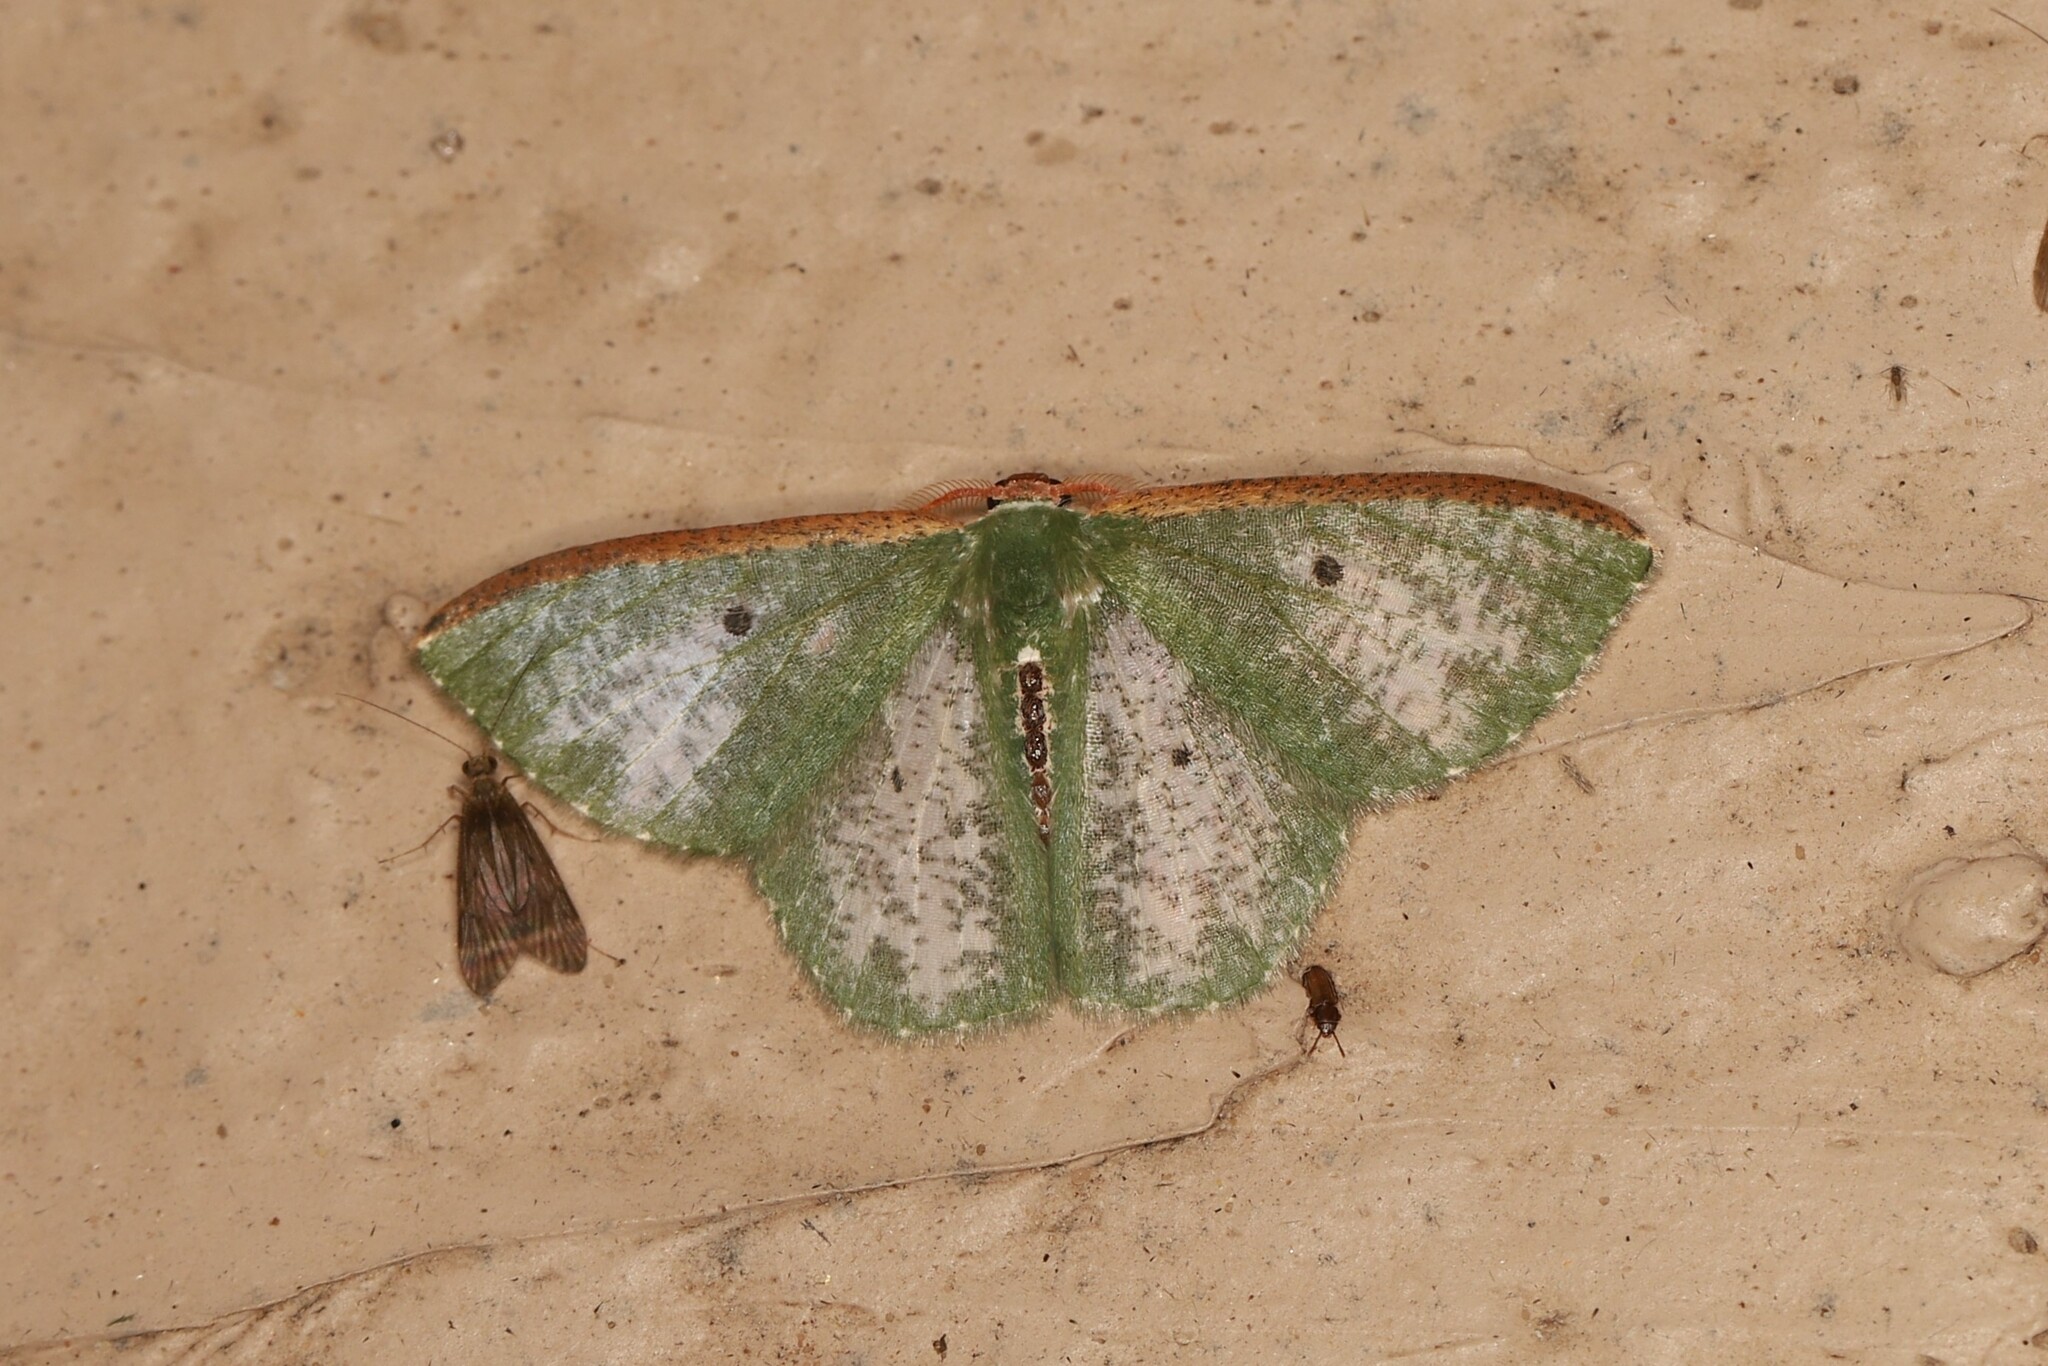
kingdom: Animalia
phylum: Arthropoda
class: Insecta
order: Lepidoptera
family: Geometridae
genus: Oospila
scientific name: Oospila nivetacta
